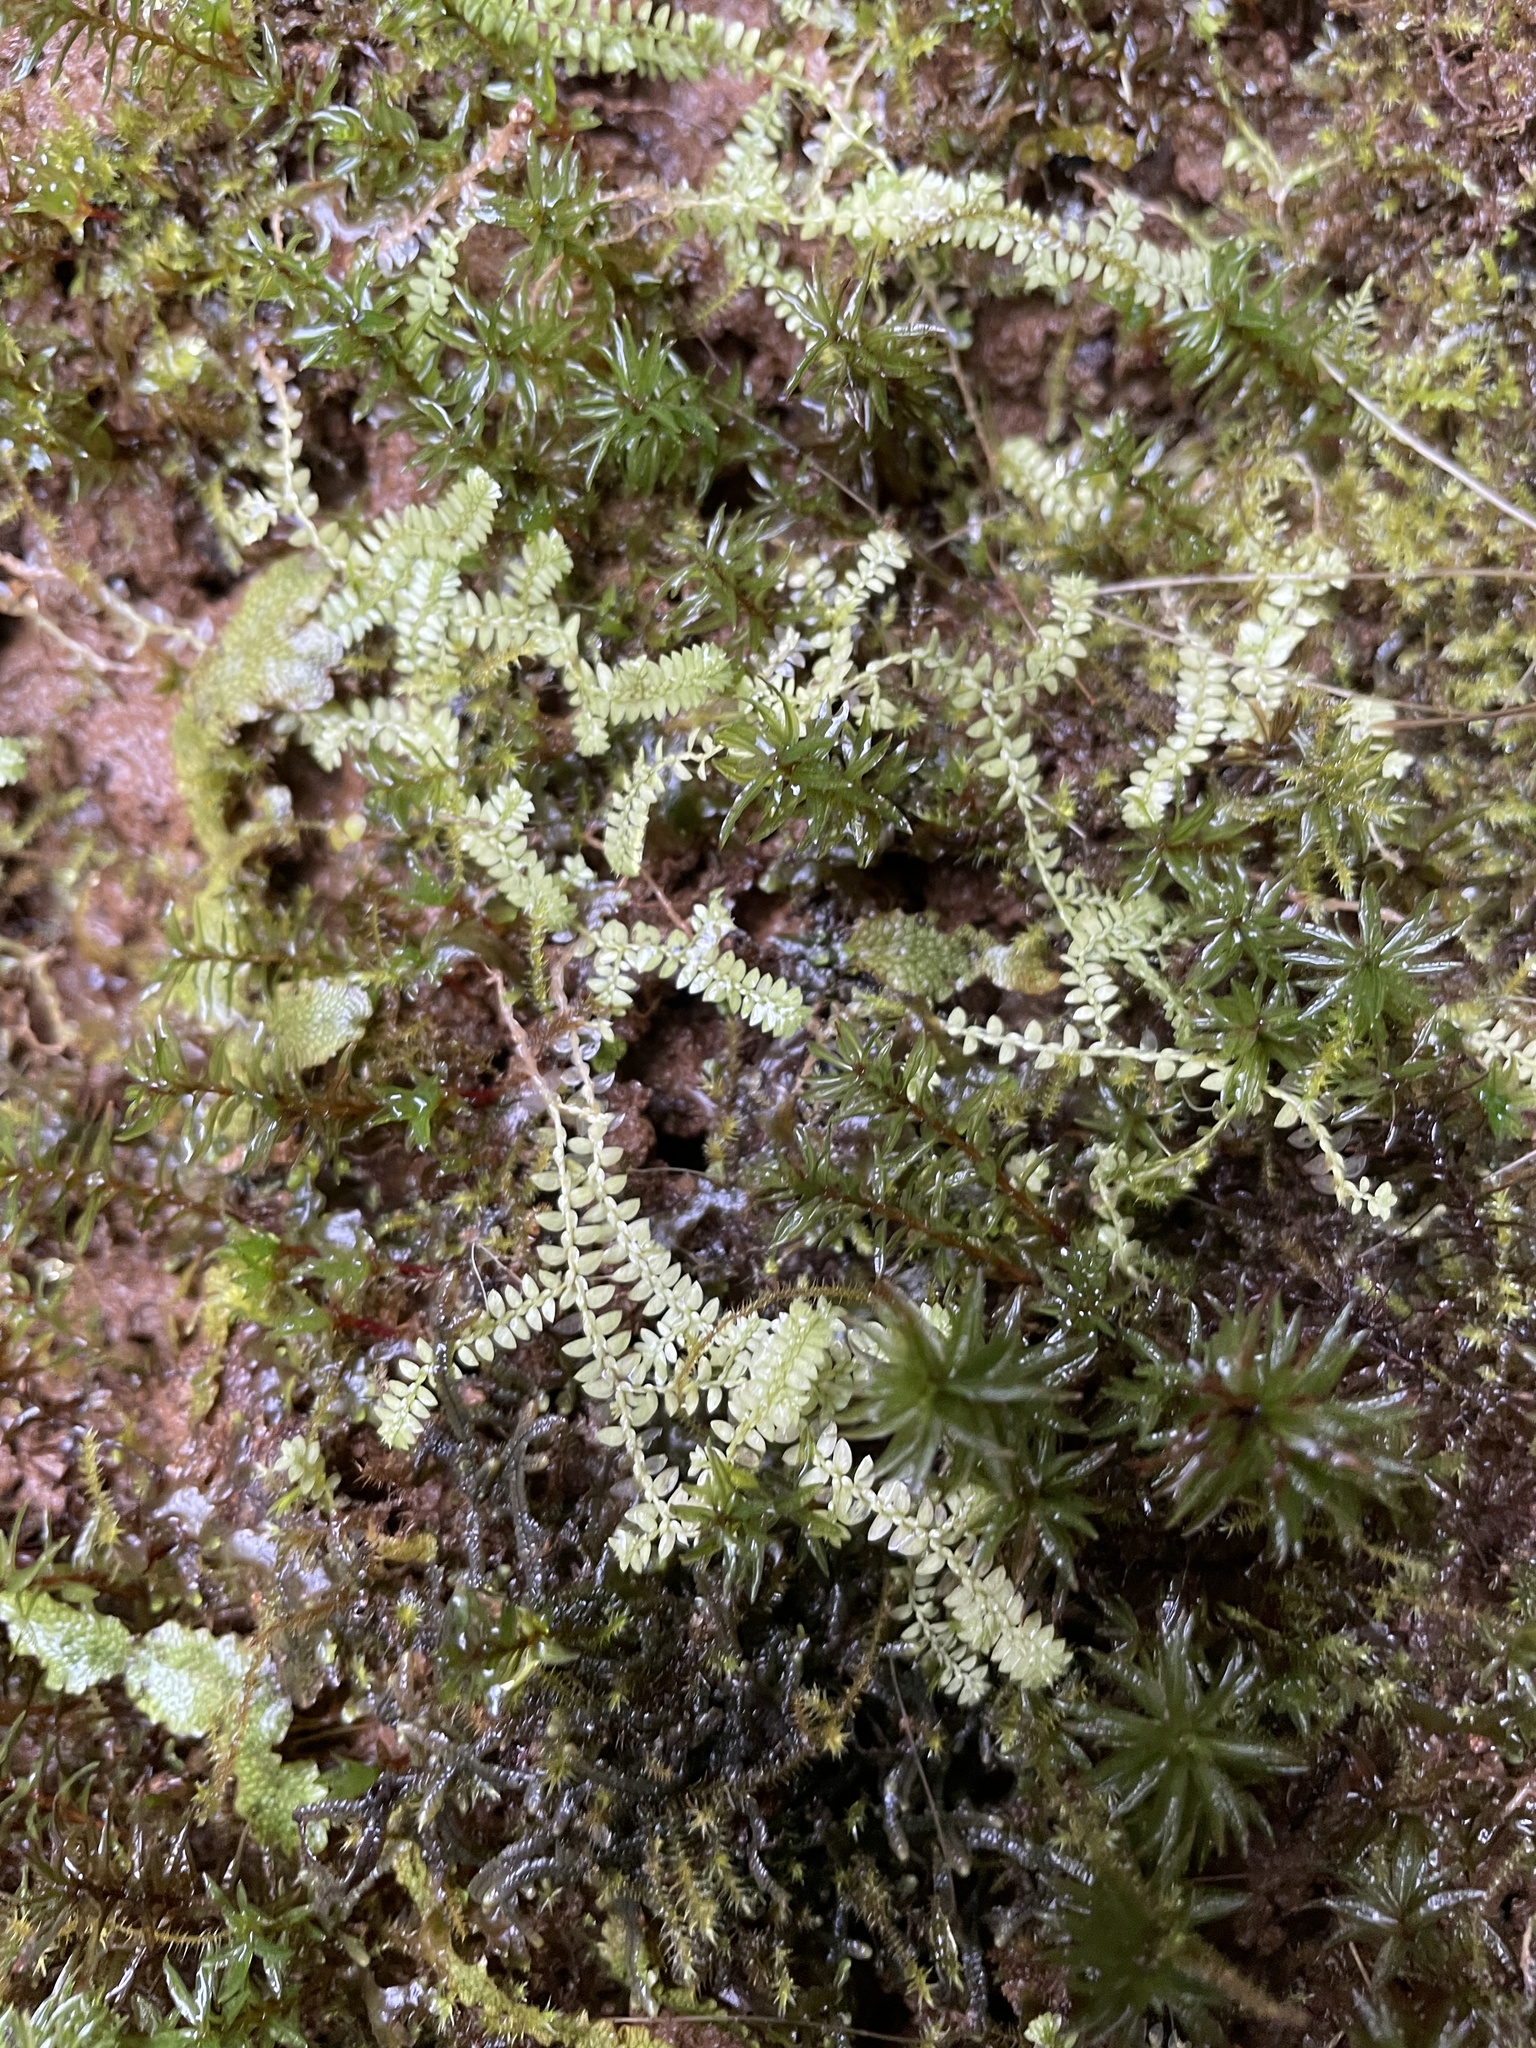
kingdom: Plantae
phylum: Tracheophyta
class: Lycopodiopsida
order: Selaginellales
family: Selaginellaceae
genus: Selaginella
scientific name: Selaginella apoda
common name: Creeping spikemoss
